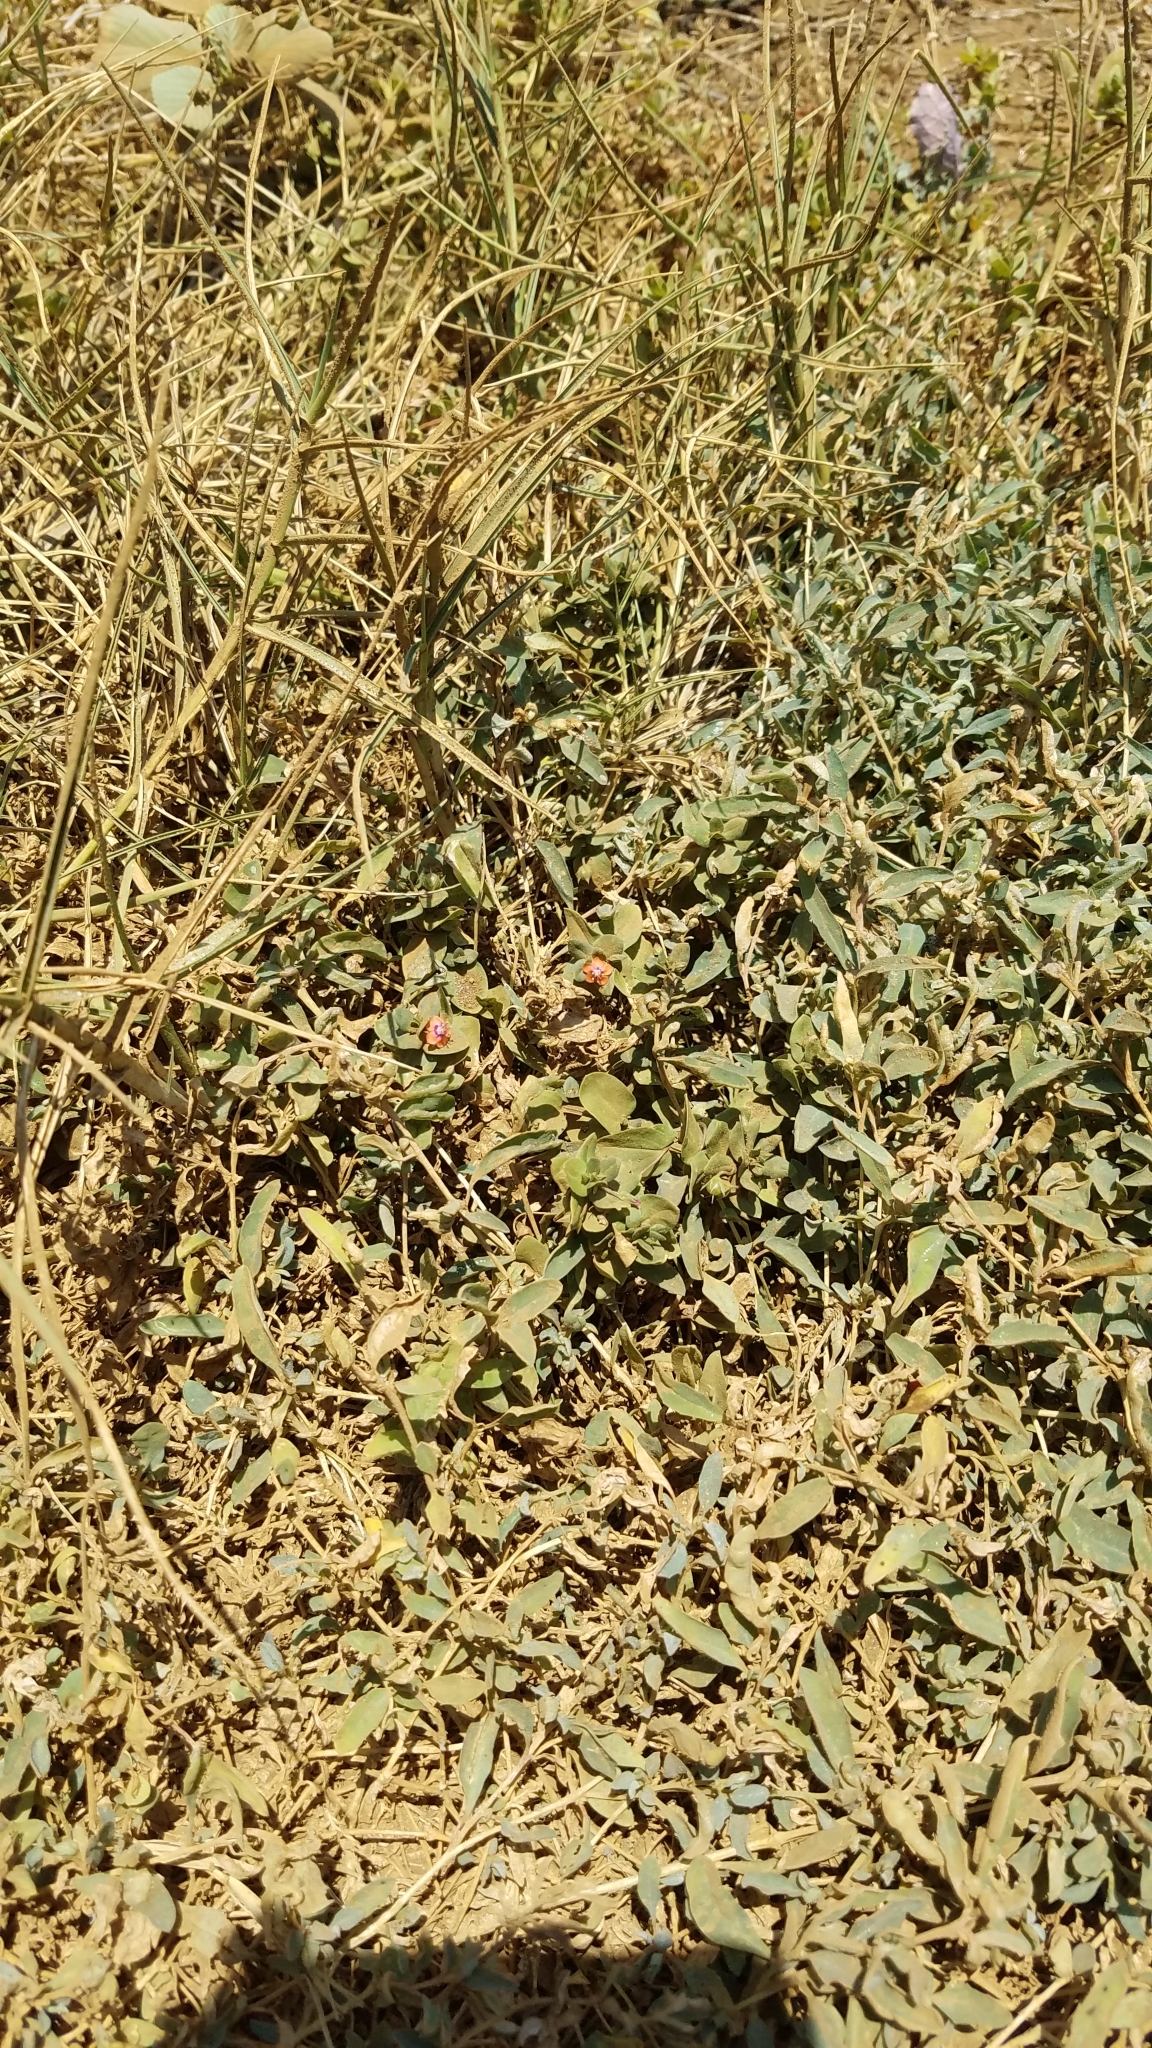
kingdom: Plantae
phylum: Tracheophyta
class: Magnoliopsida
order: Ericales
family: Primulaceae
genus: Lysimachia
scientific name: Lysimachia arvensis
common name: Scarlet pimpernel
